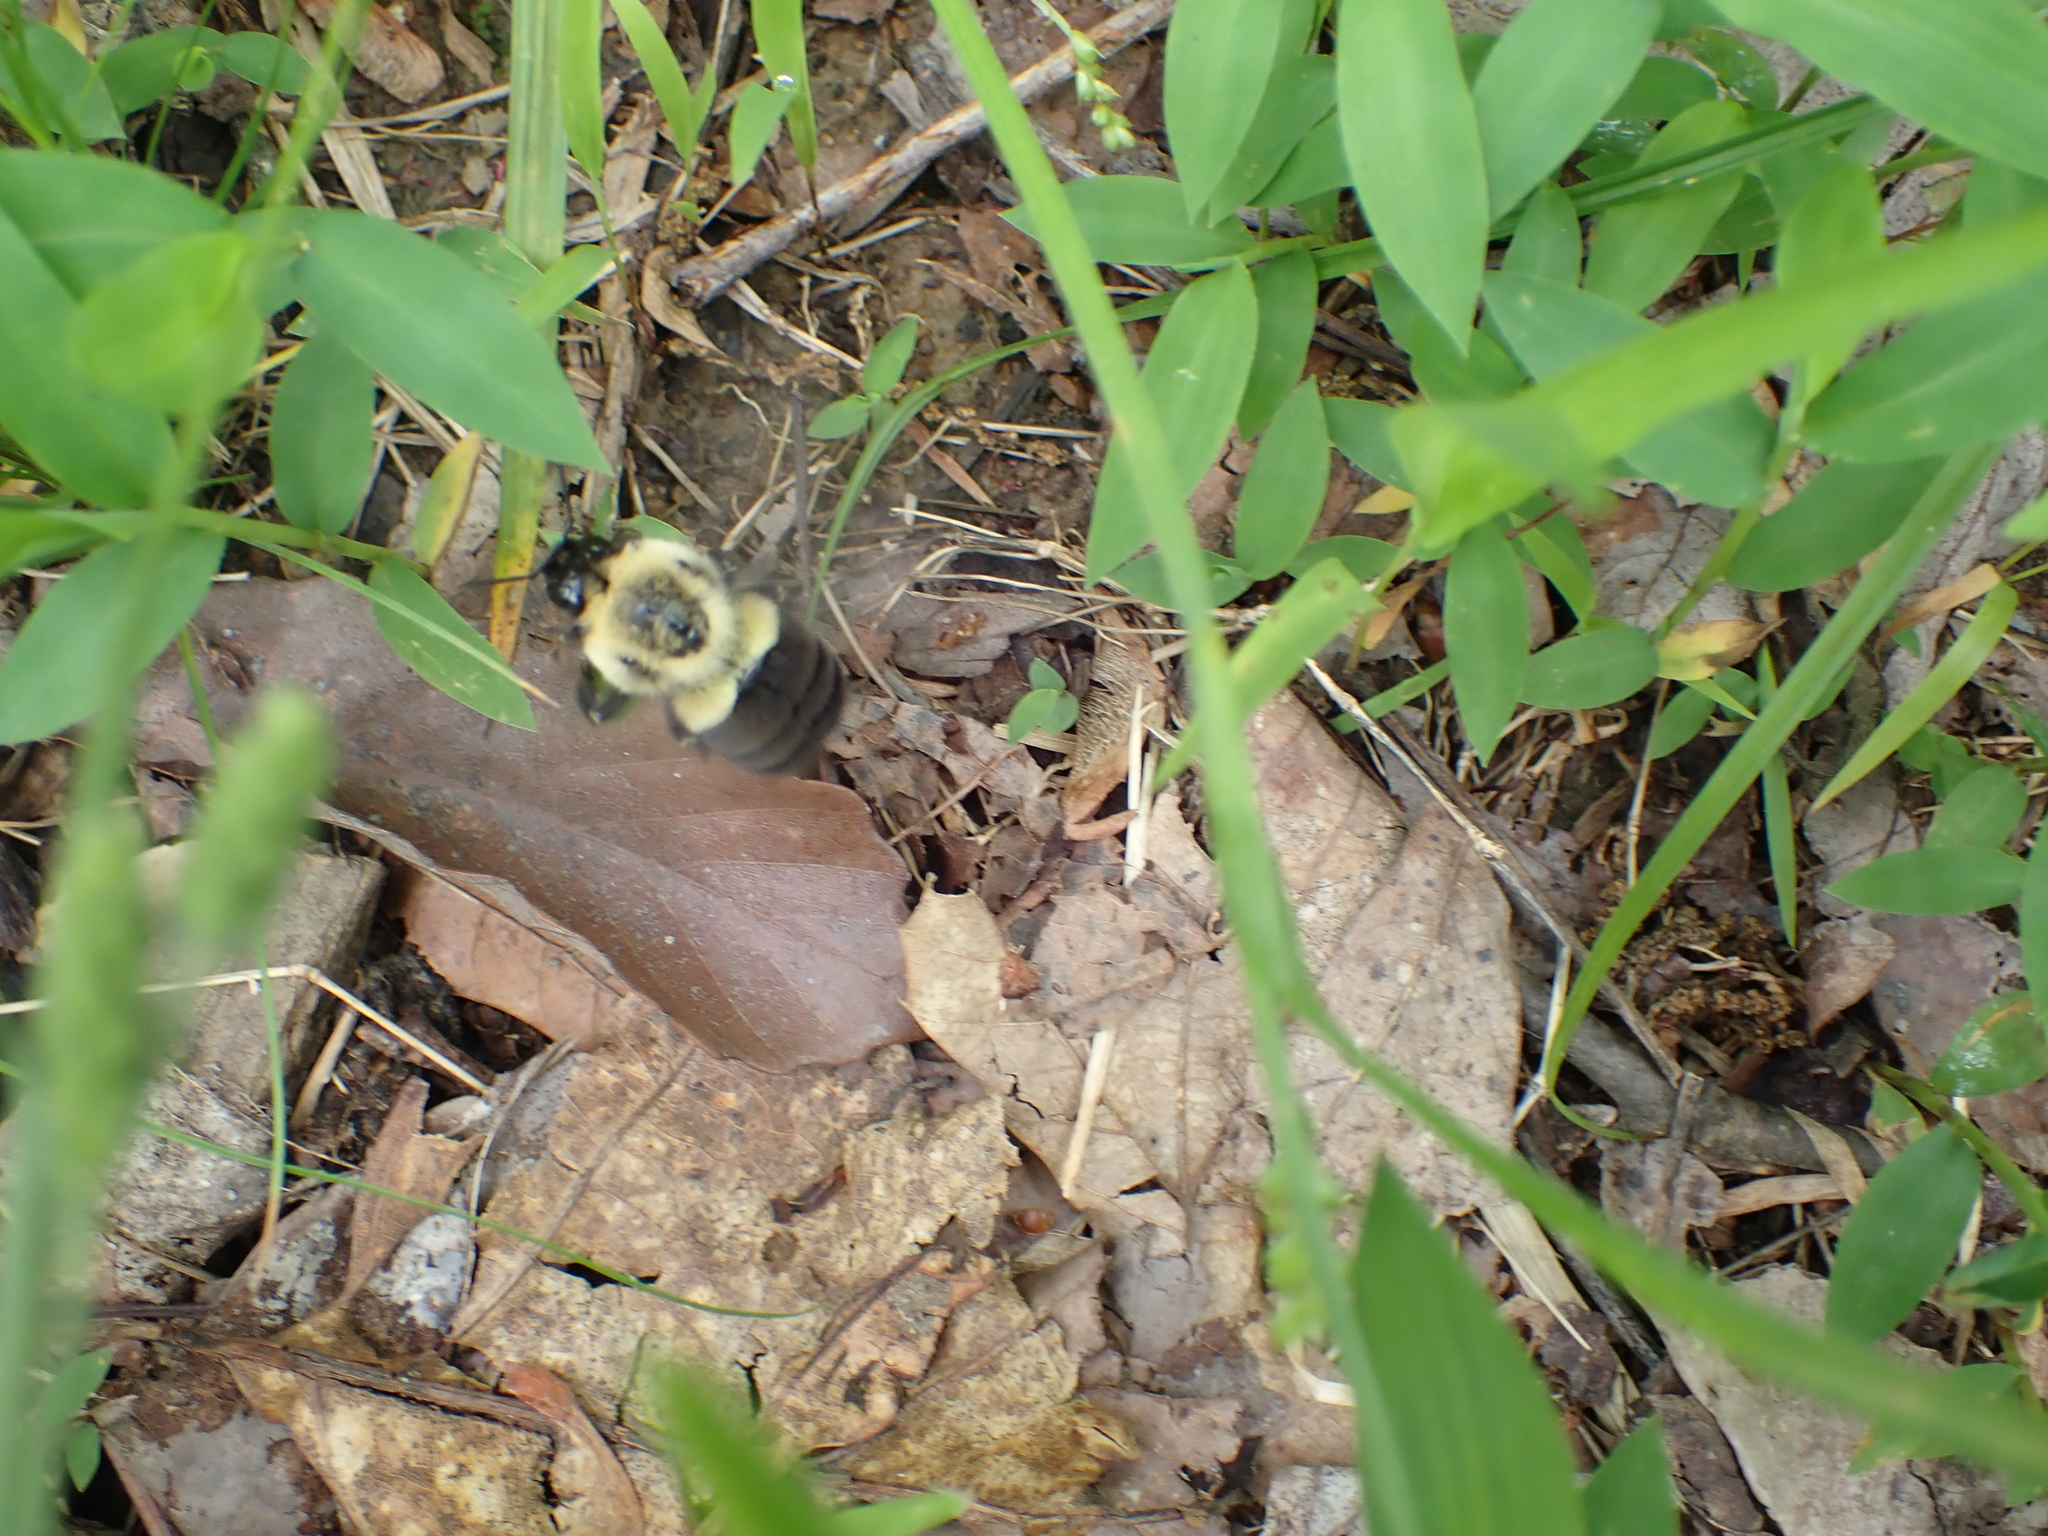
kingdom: Animalia
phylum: Arthropoda
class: Insecta
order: Hymenoptera
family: Apidae
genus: Bombus
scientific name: Bombus impatiens
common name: Common eastern bumble bee
